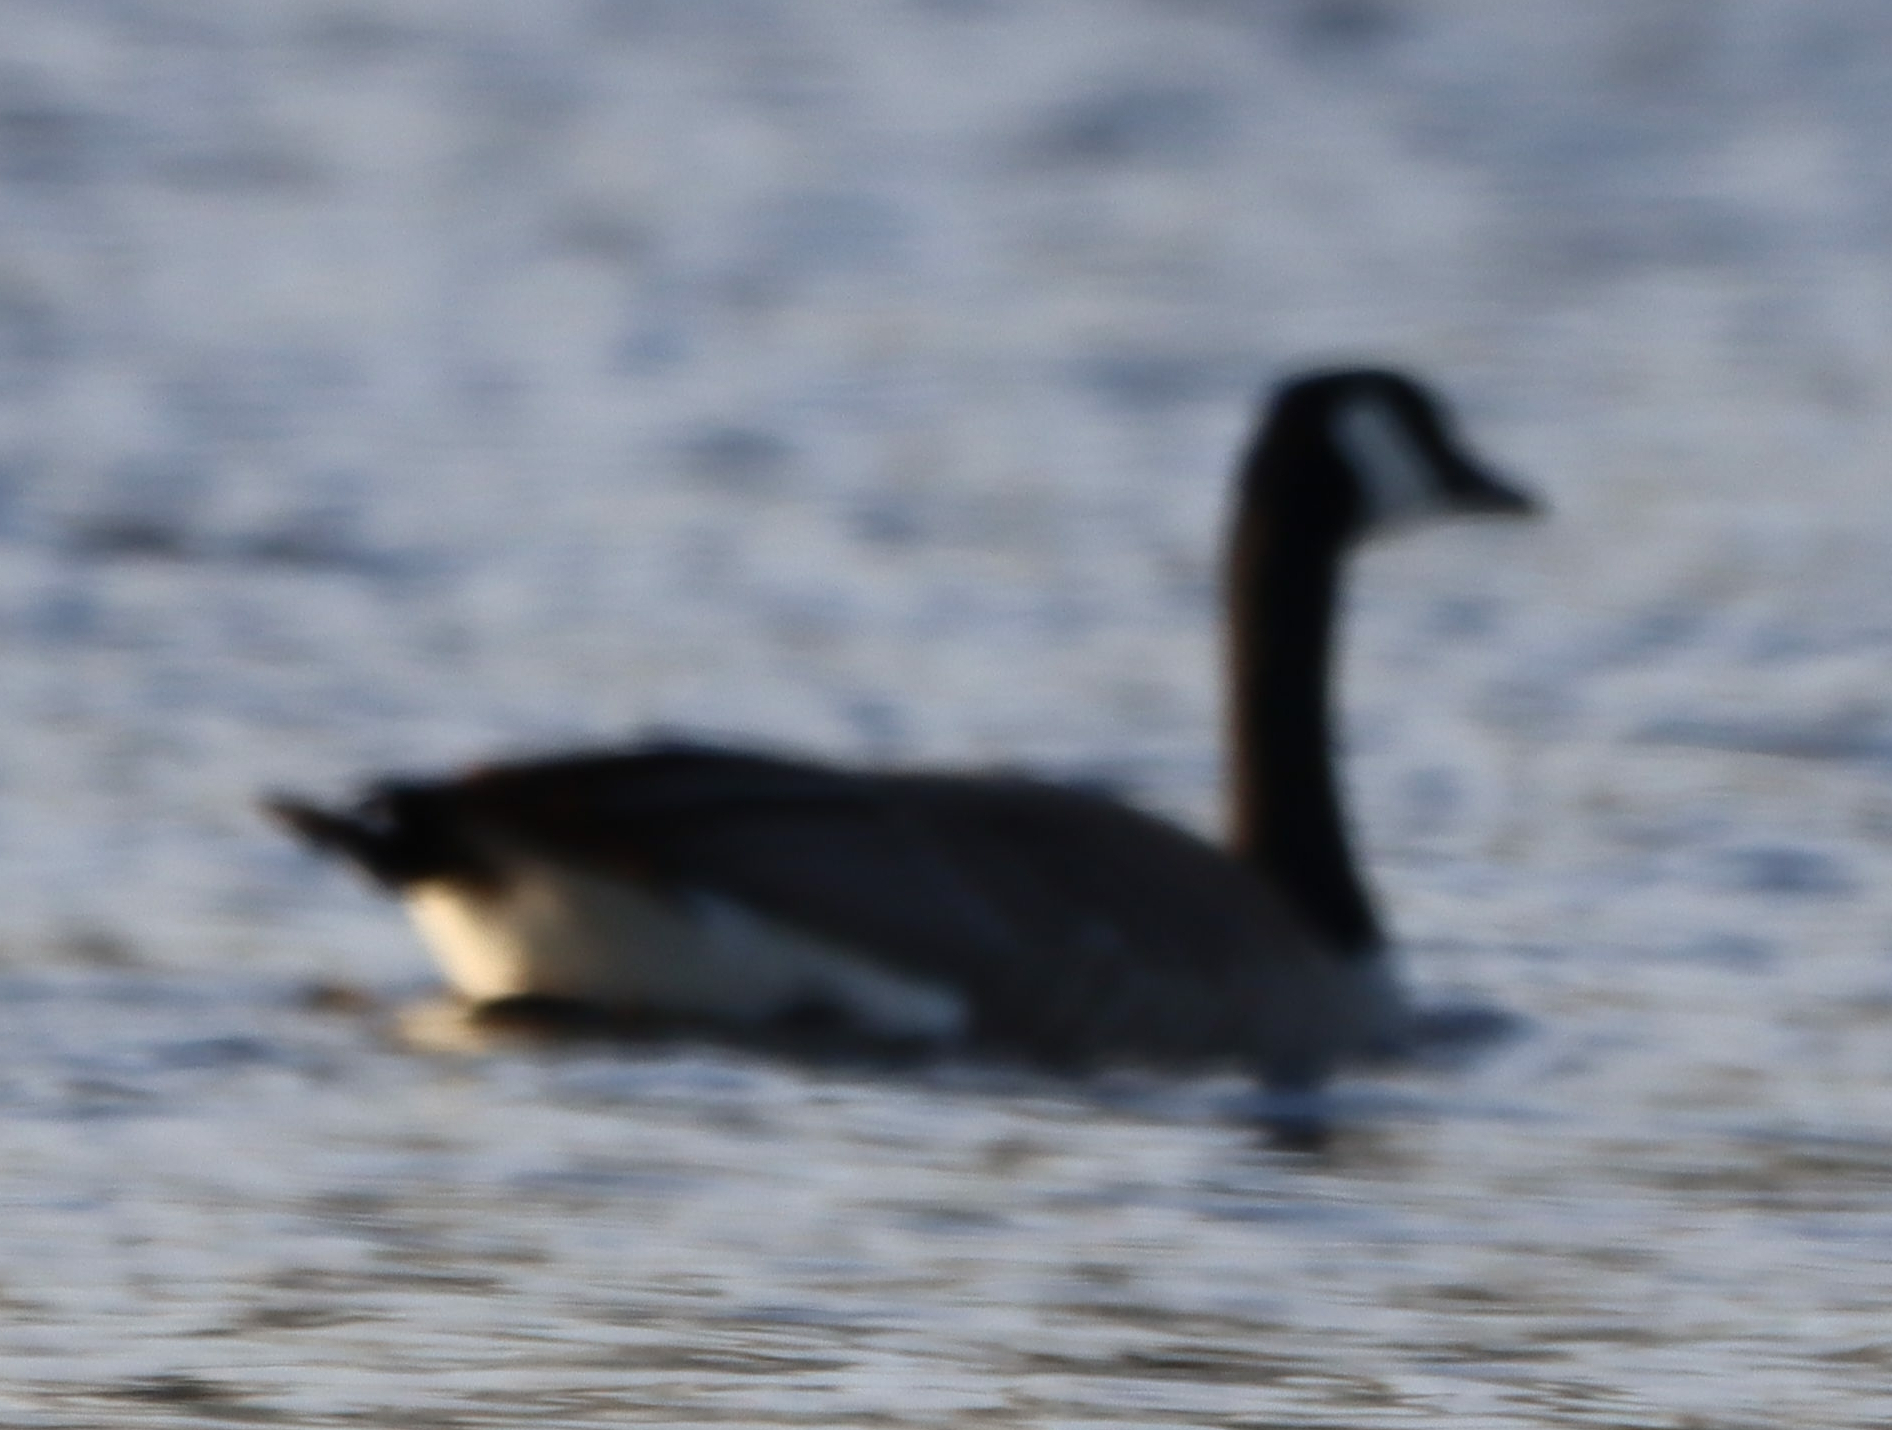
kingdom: Animalia
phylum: Chordata
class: Aves
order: Anseriformes
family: Anatidae
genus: Branta
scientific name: Branta canadensis
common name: Canada goose
